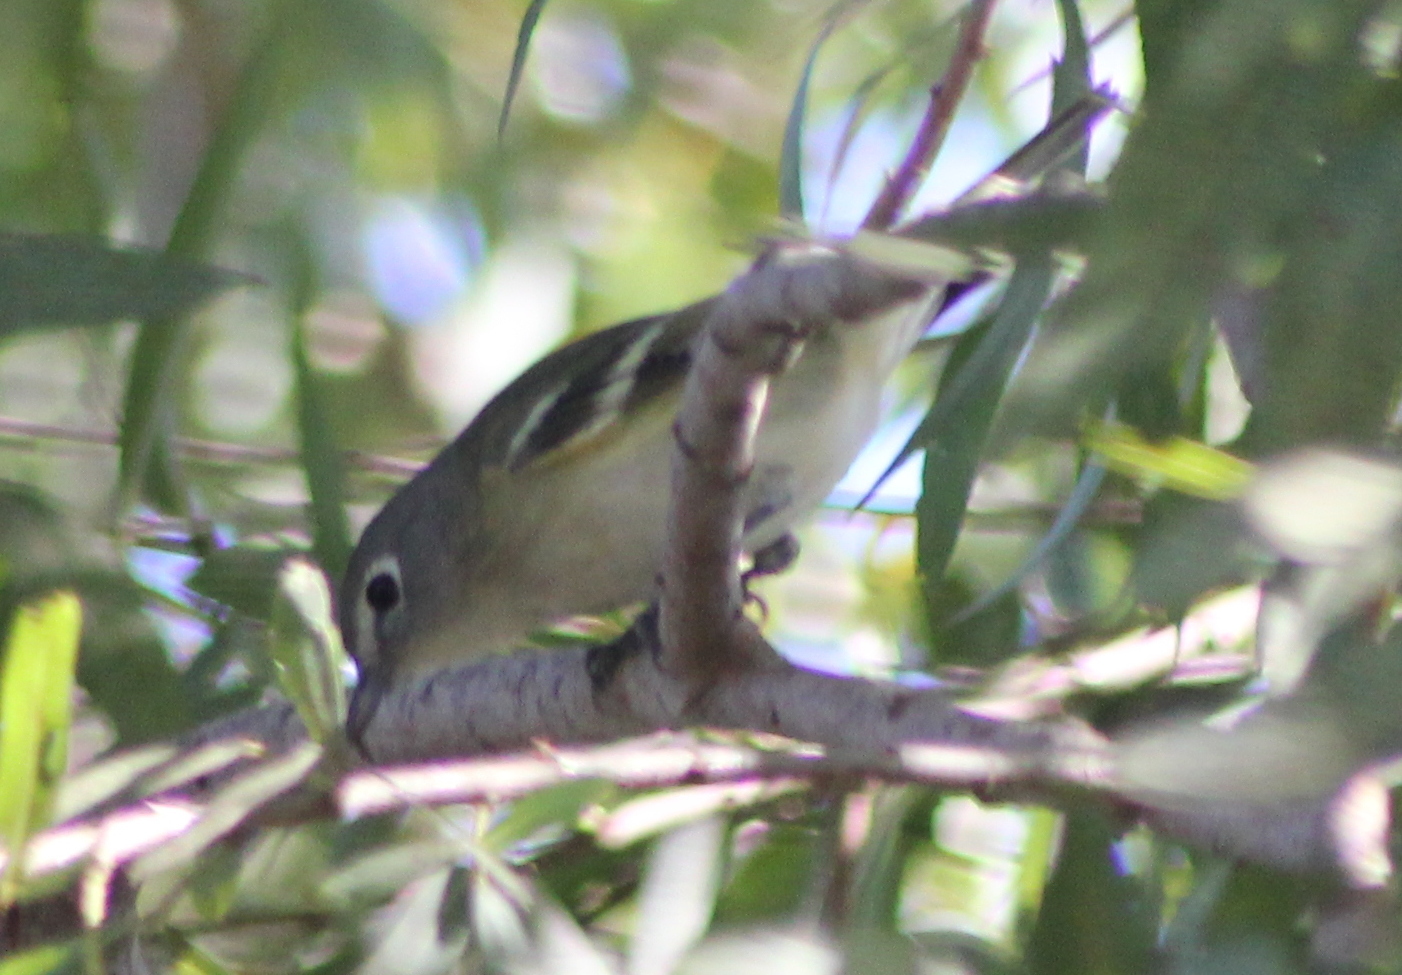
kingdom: Animalia
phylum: Chordata
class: Aves
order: Passeriformes
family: Vireonidae
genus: Vireo
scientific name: Vireo cassinii
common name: Cassin's vireo
